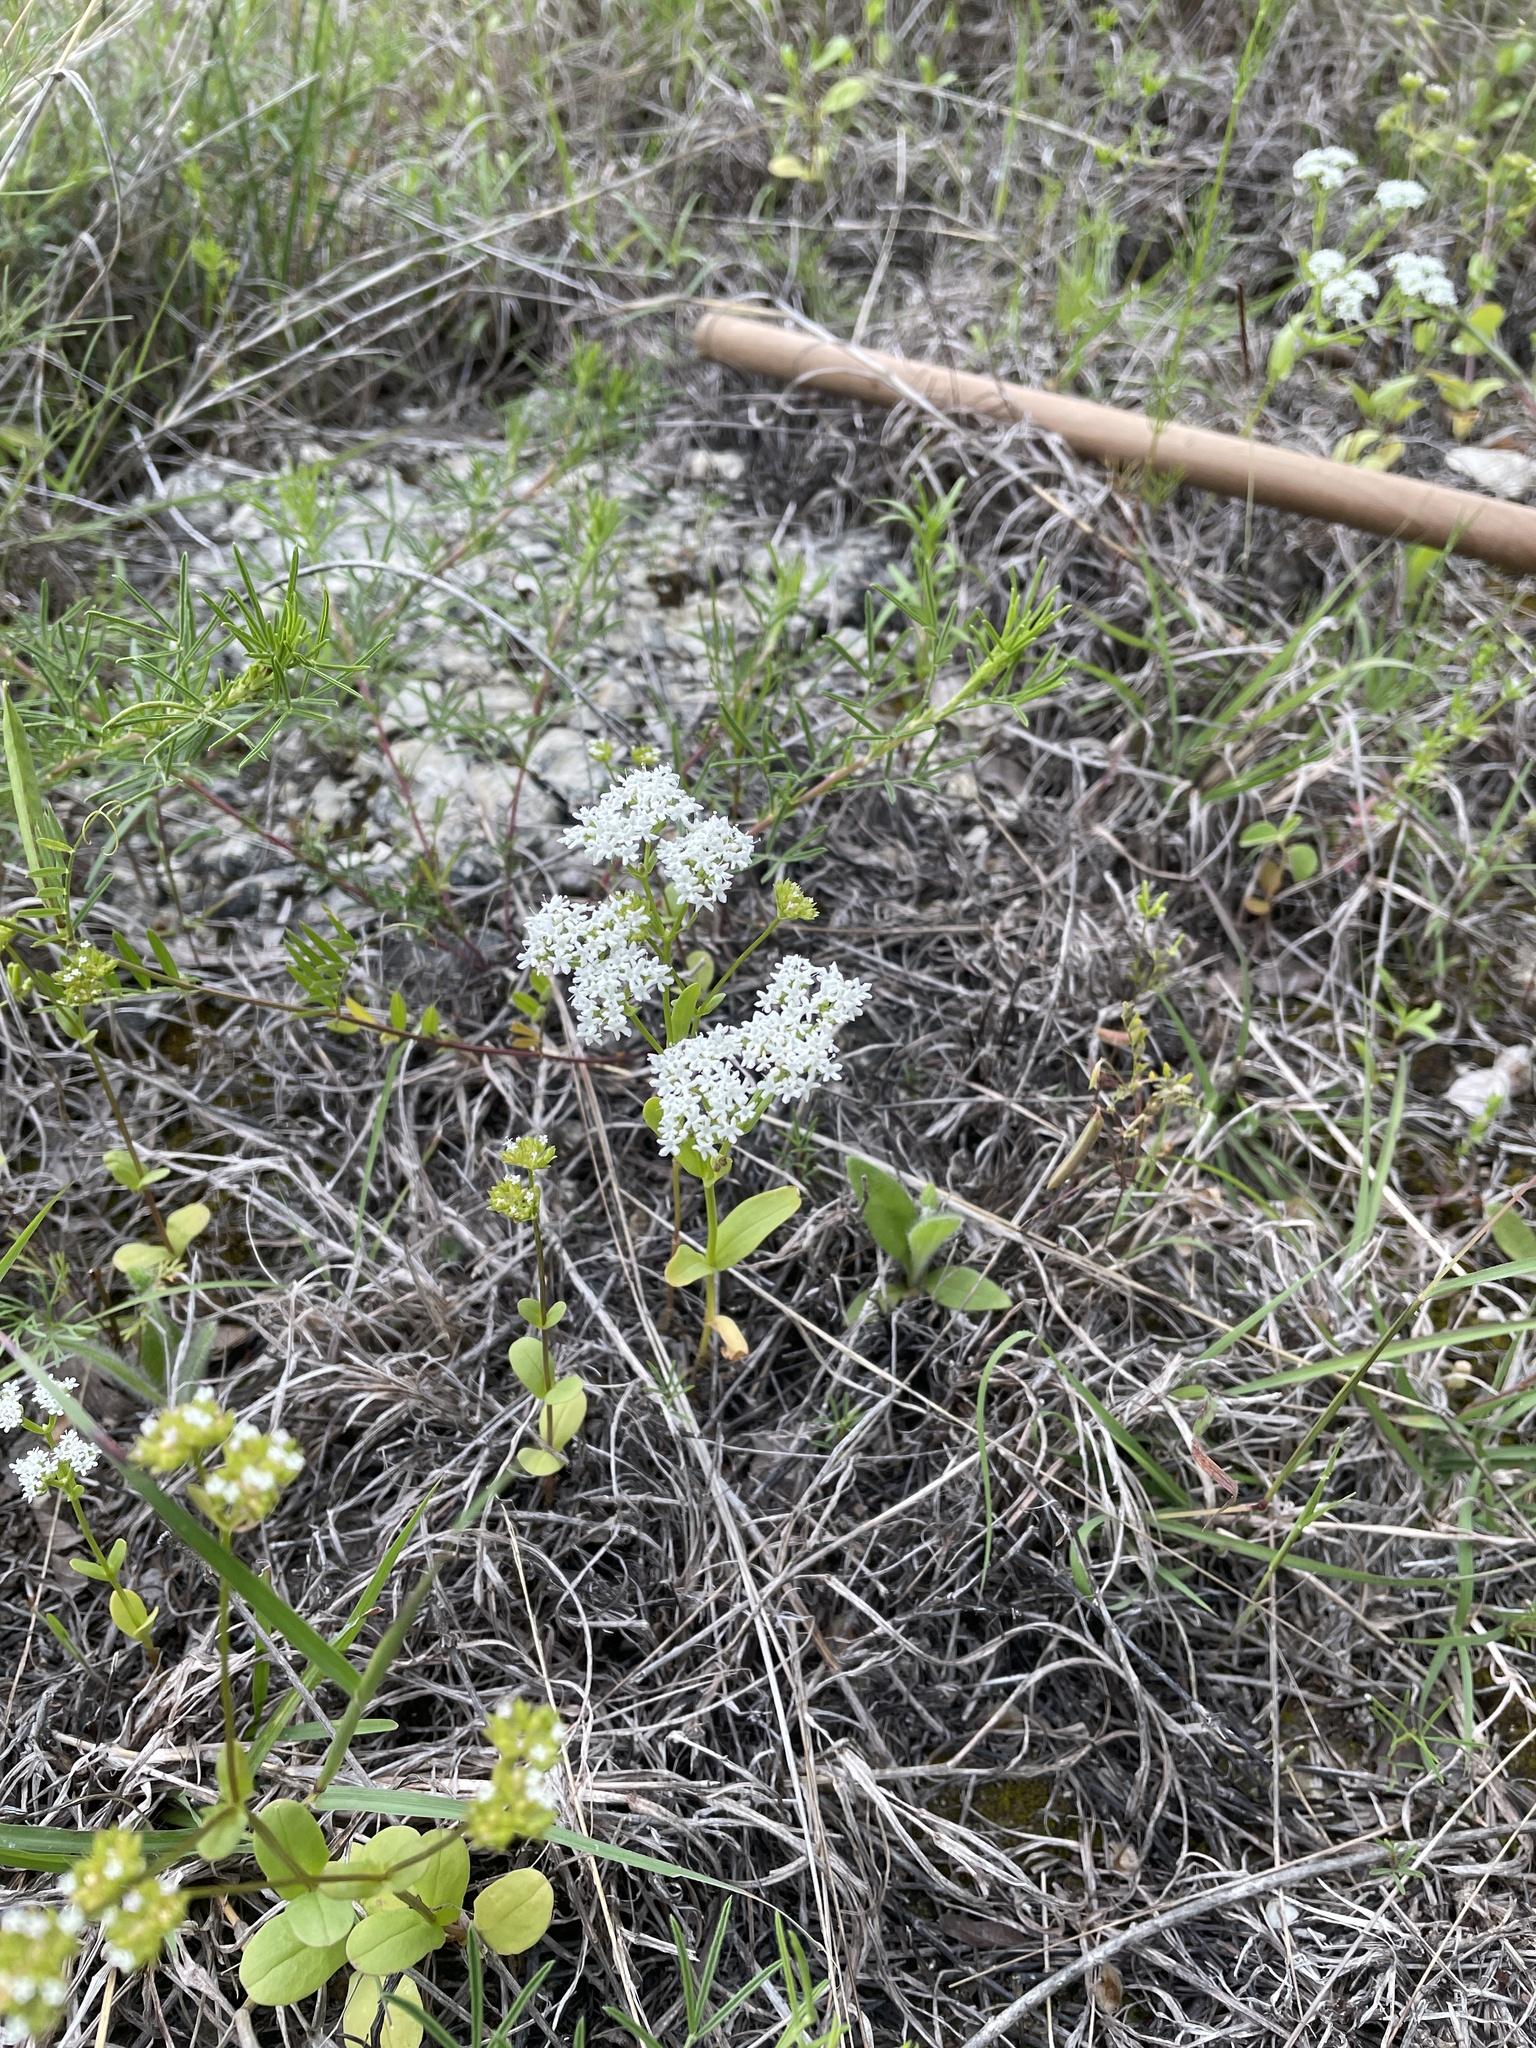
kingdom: Plantae
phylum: Tracheophyta
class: Magnoliopsida
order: Dipsacales
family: Caprifoliaceae
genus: Valerianella
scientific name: Valerianella amarella
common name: Hariy cornsalad
